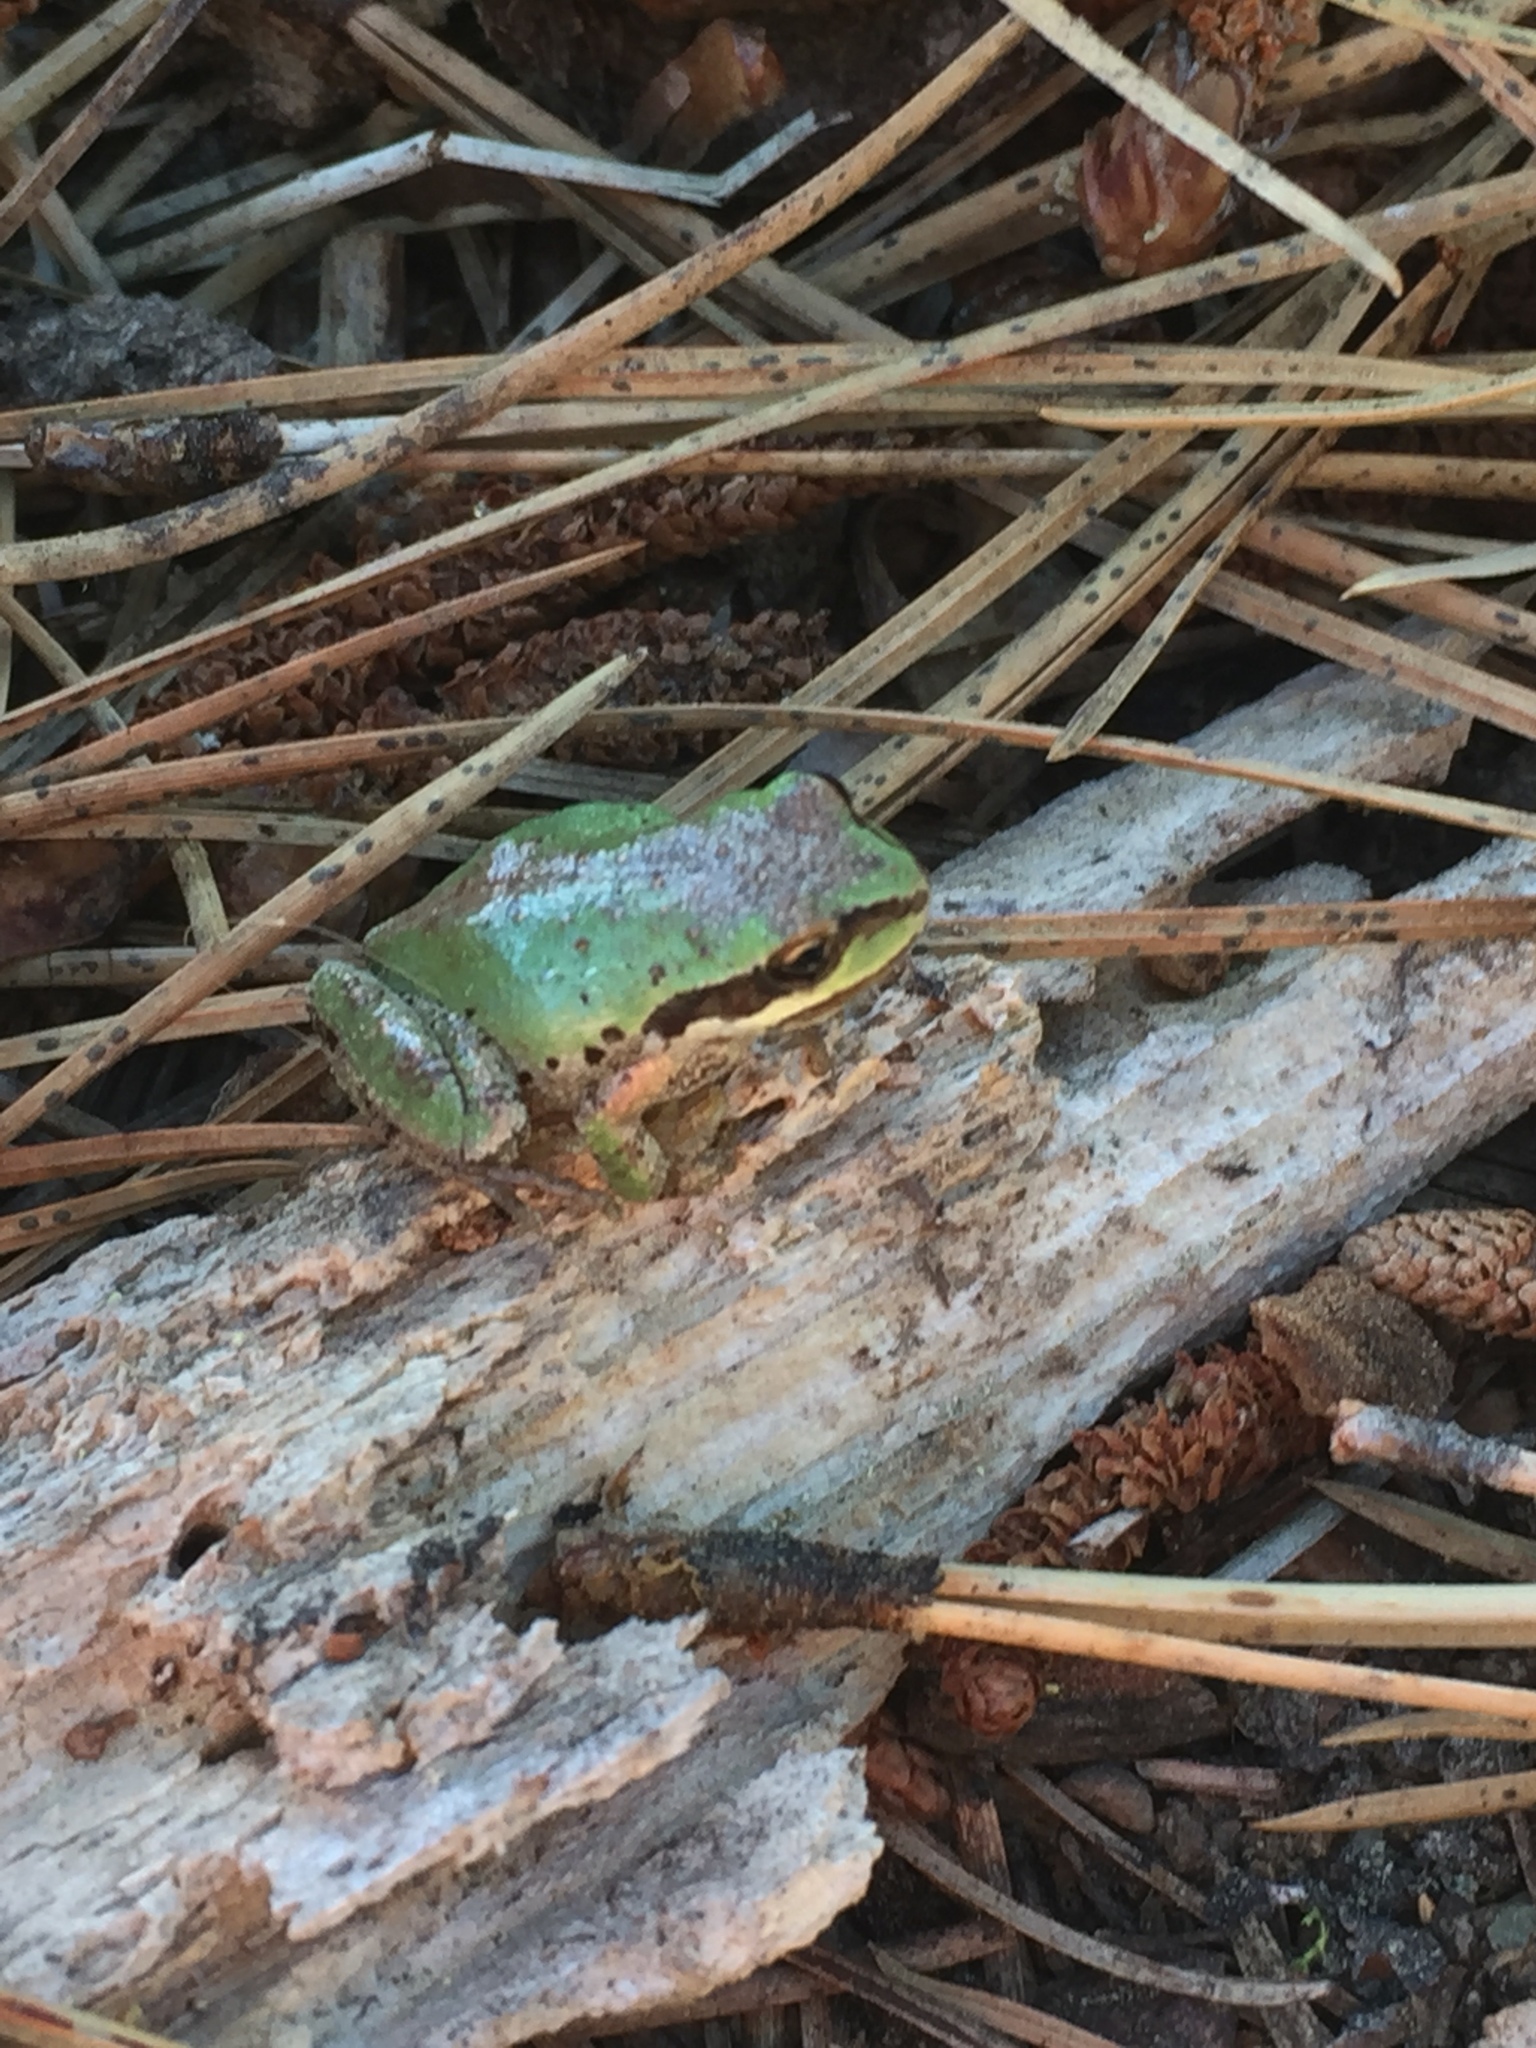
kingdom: Animalia
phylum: Chordata
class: Amphibia
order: Anura
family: Hylidae
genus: Pseudacris
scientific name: Pseudacris regilla
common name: Pacific chorus frog
